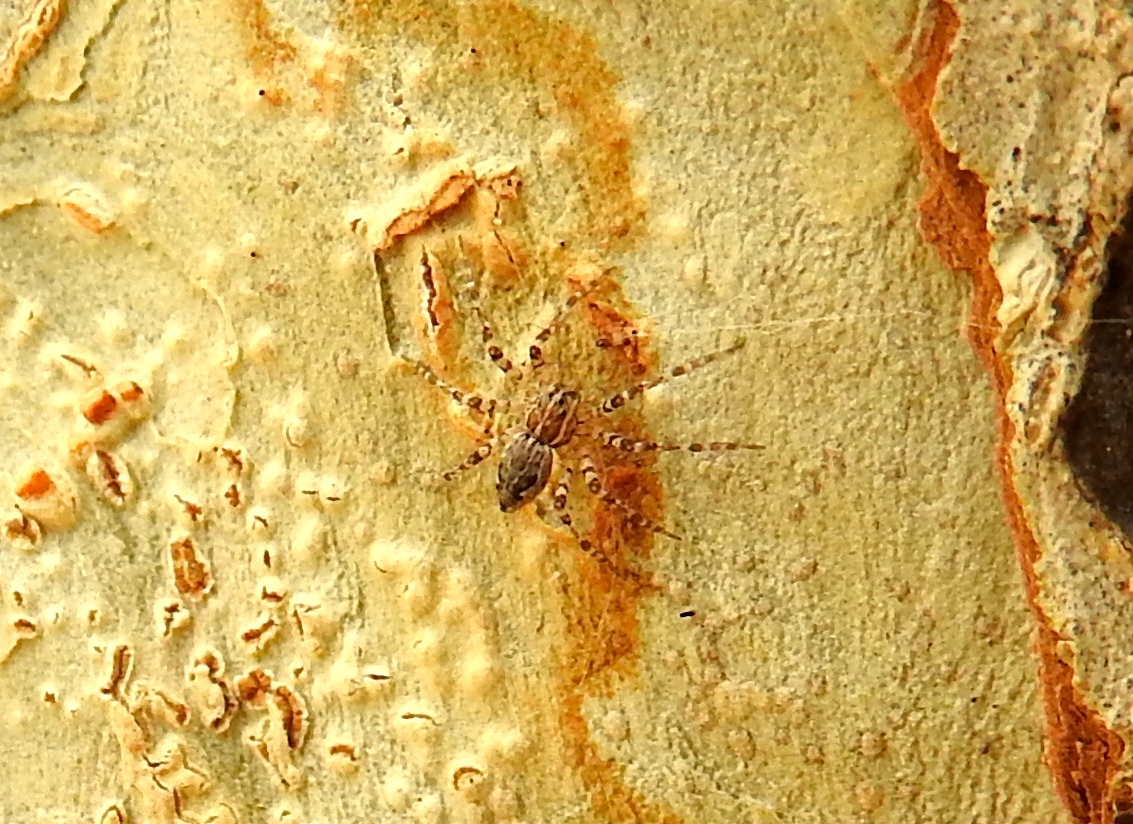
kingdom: Animalia
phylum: Arthropoda
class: Arachnida
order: Araneae
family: Pisauridae
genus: Tinus
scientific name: Tinus
